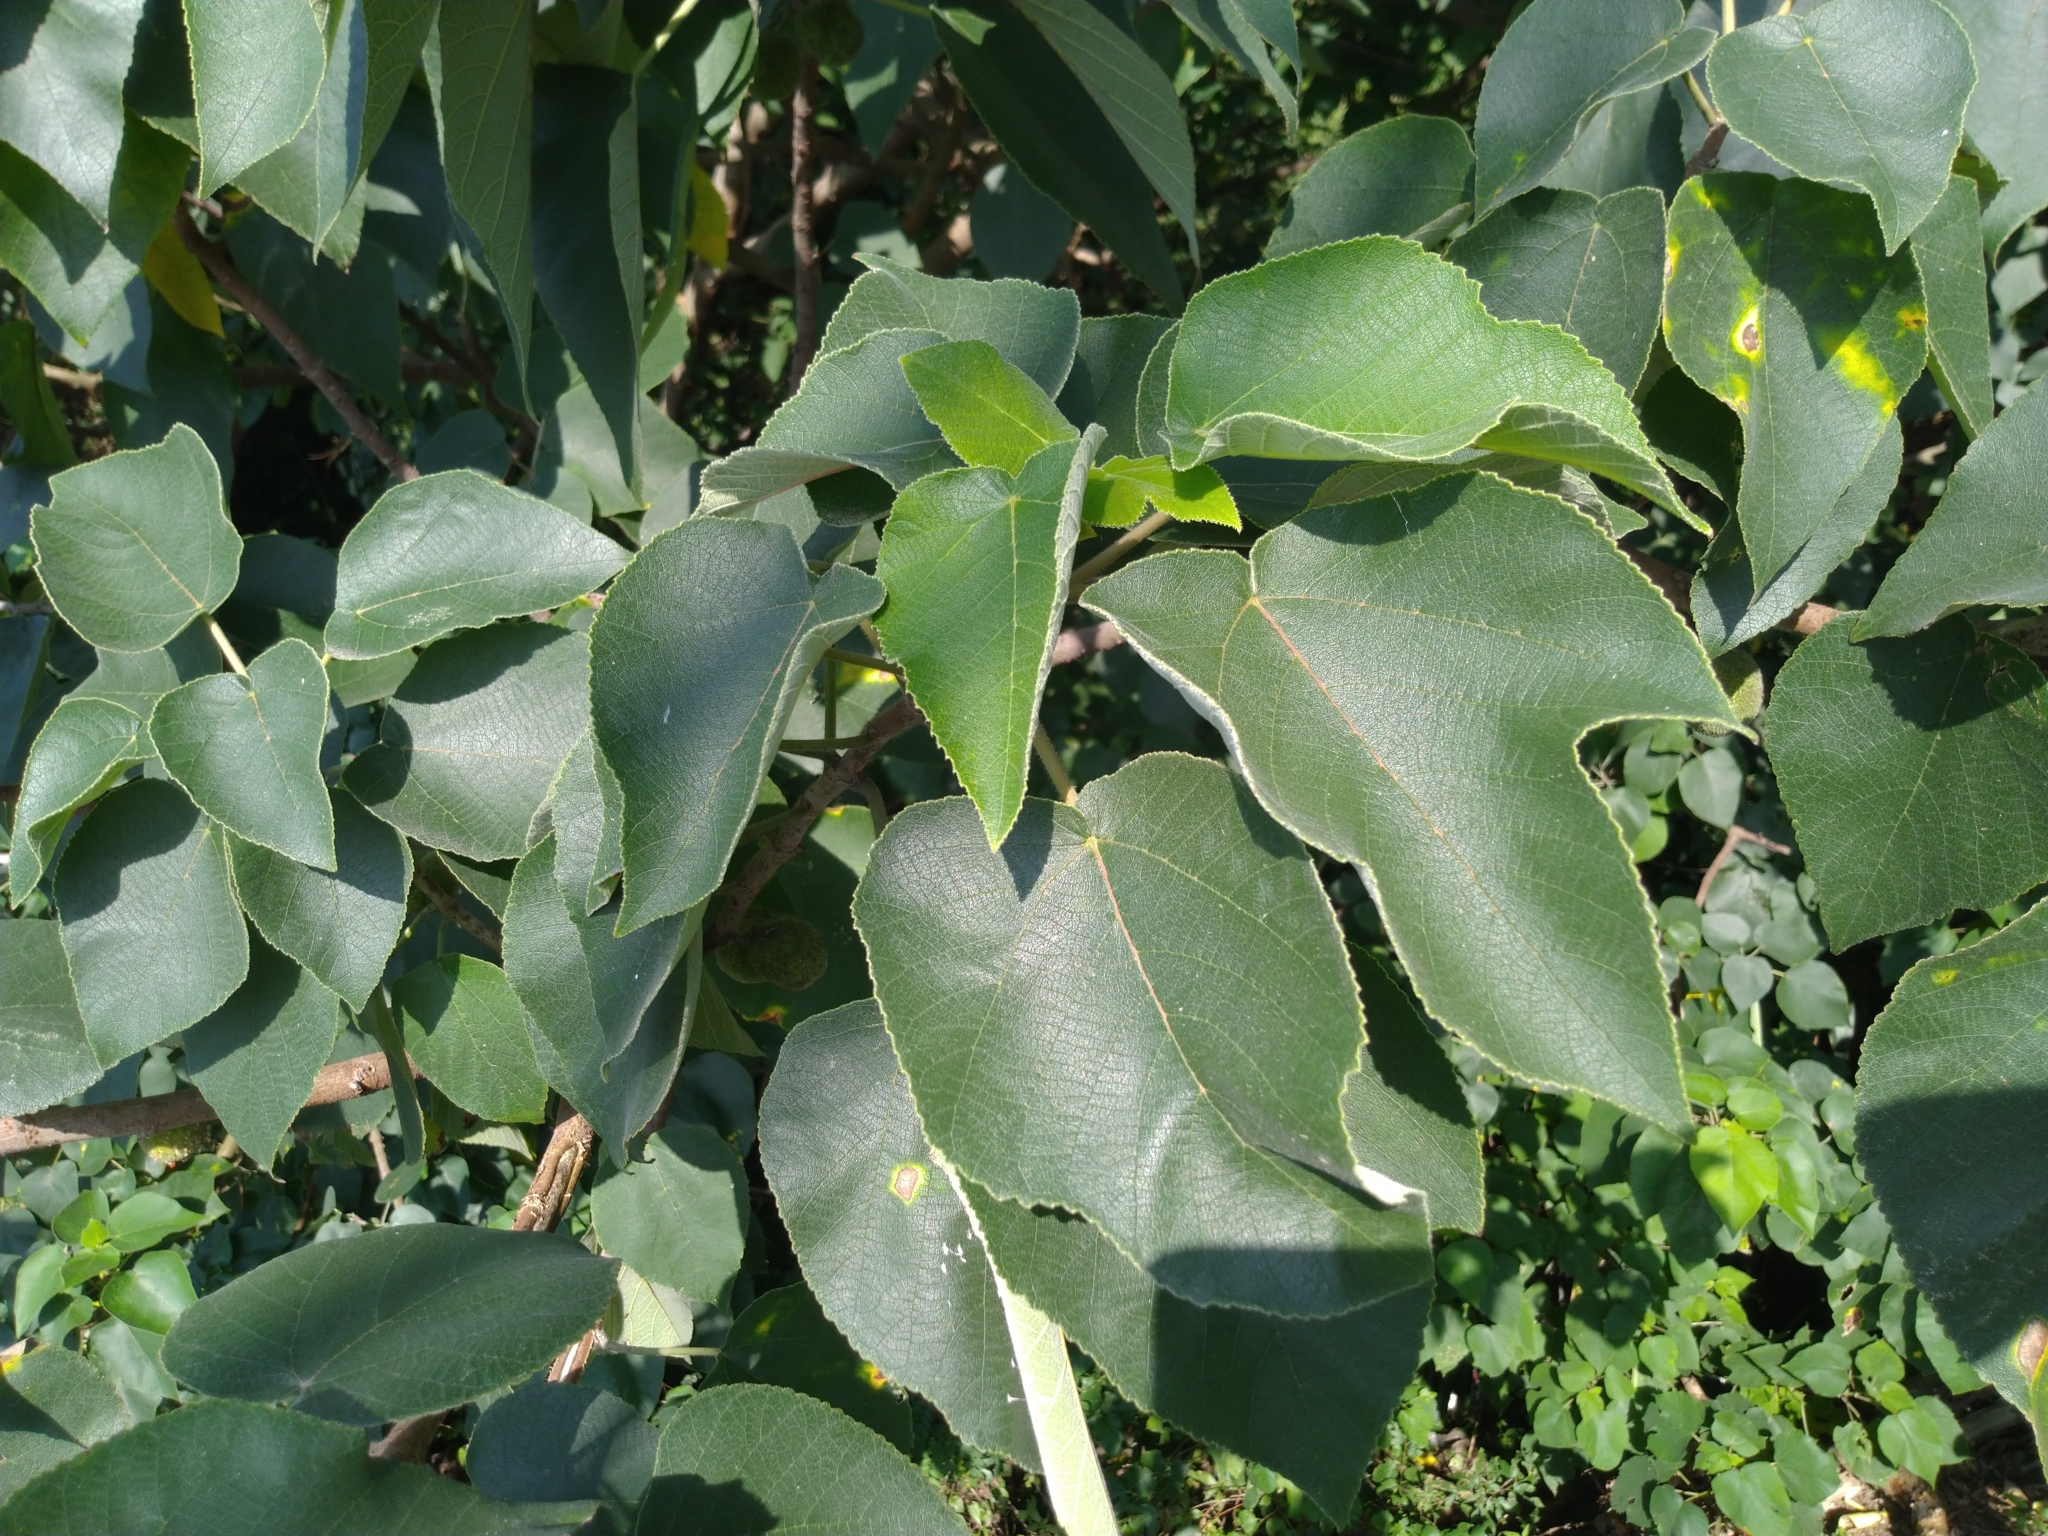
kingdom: Plantae
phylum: Tracheophyta
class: Magnoliopsida
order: Rosales
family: Moraceae
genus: Broussonetia
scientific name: Broussonetia papyrifera
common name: Paper mulberry
